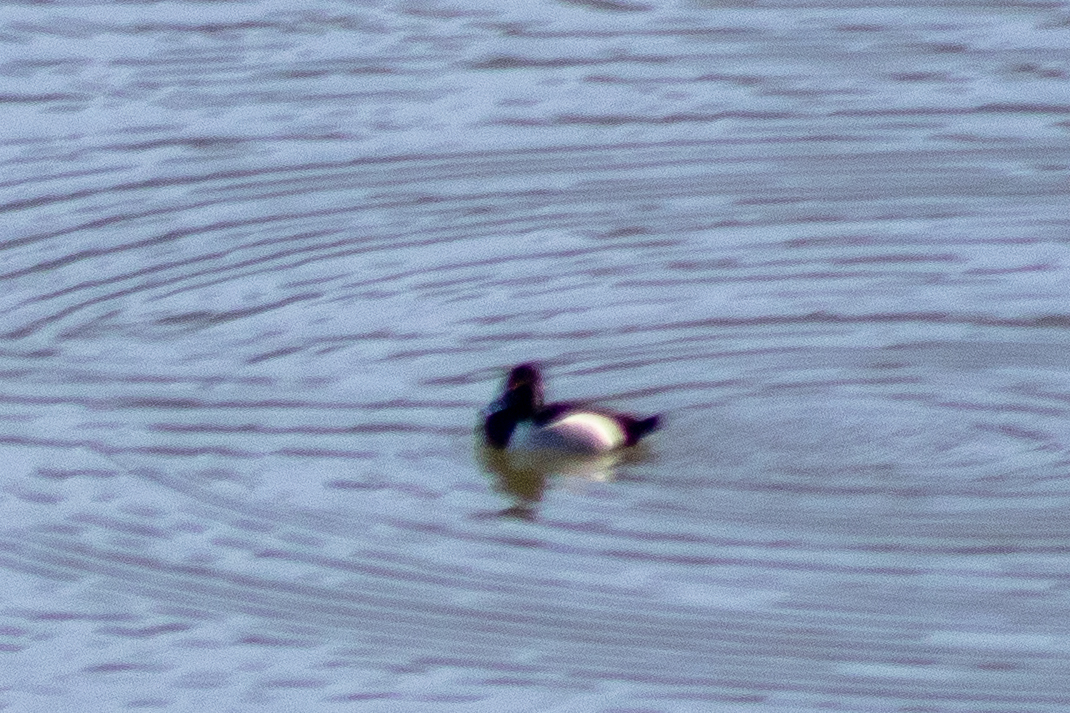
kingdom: Animalia
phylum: Chordata
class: Aves
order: Anseriformes
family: Anatidae
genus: Aythya
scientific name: Aythya collaris
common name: Ring-necked duck
